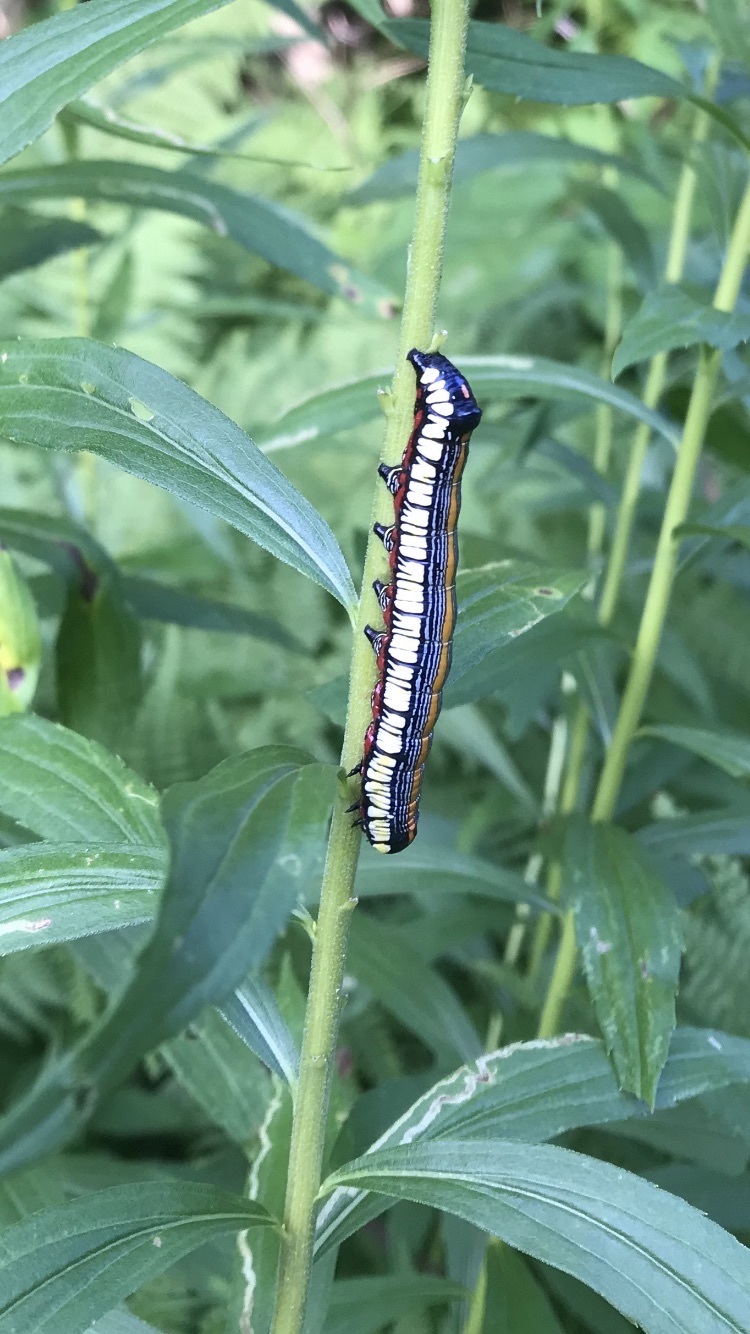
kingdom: Animalia
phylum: Arthropoda
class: Insecta
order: Lepidoptera
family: Noctuidae
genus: Cucullia
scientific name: Cucullia convexipennis
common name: Brown-hooded owlet
